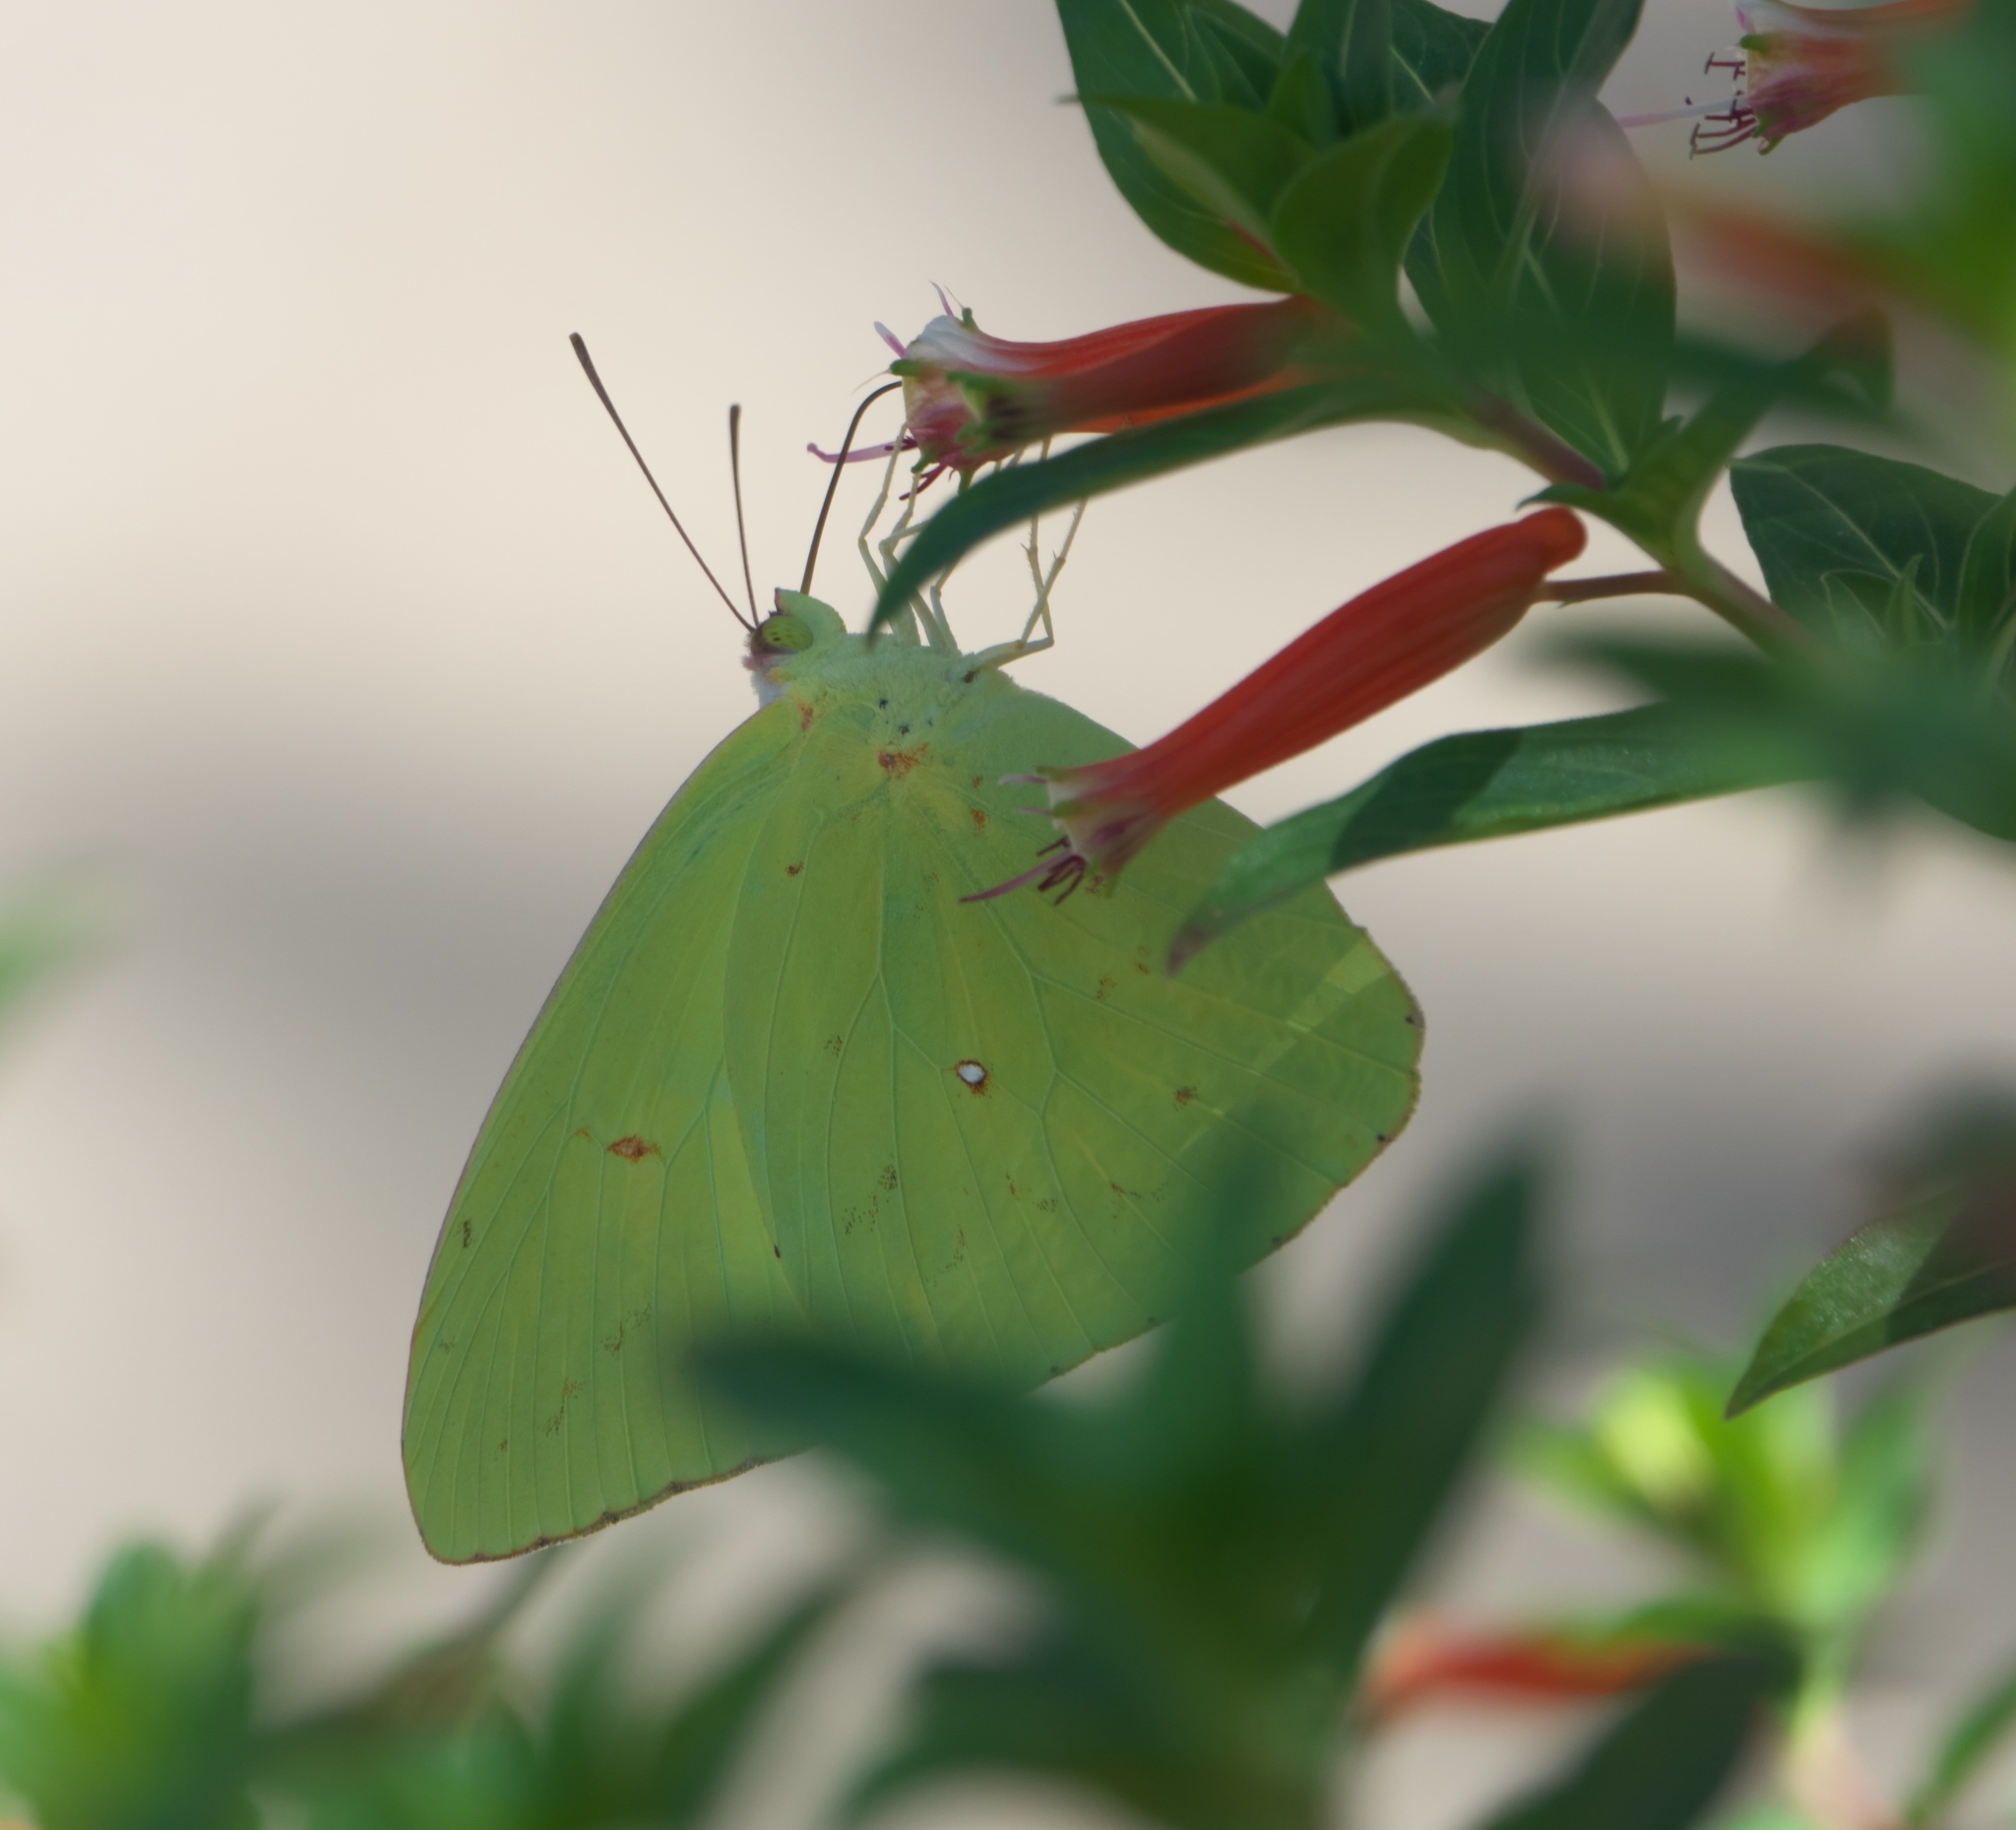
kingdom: Animalia
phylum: Arthropoda
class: Insecta
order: Lepidoptera
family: Pieridae
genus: Phoebis
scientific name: Phoebis sennae
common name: Cloudless sulphur
